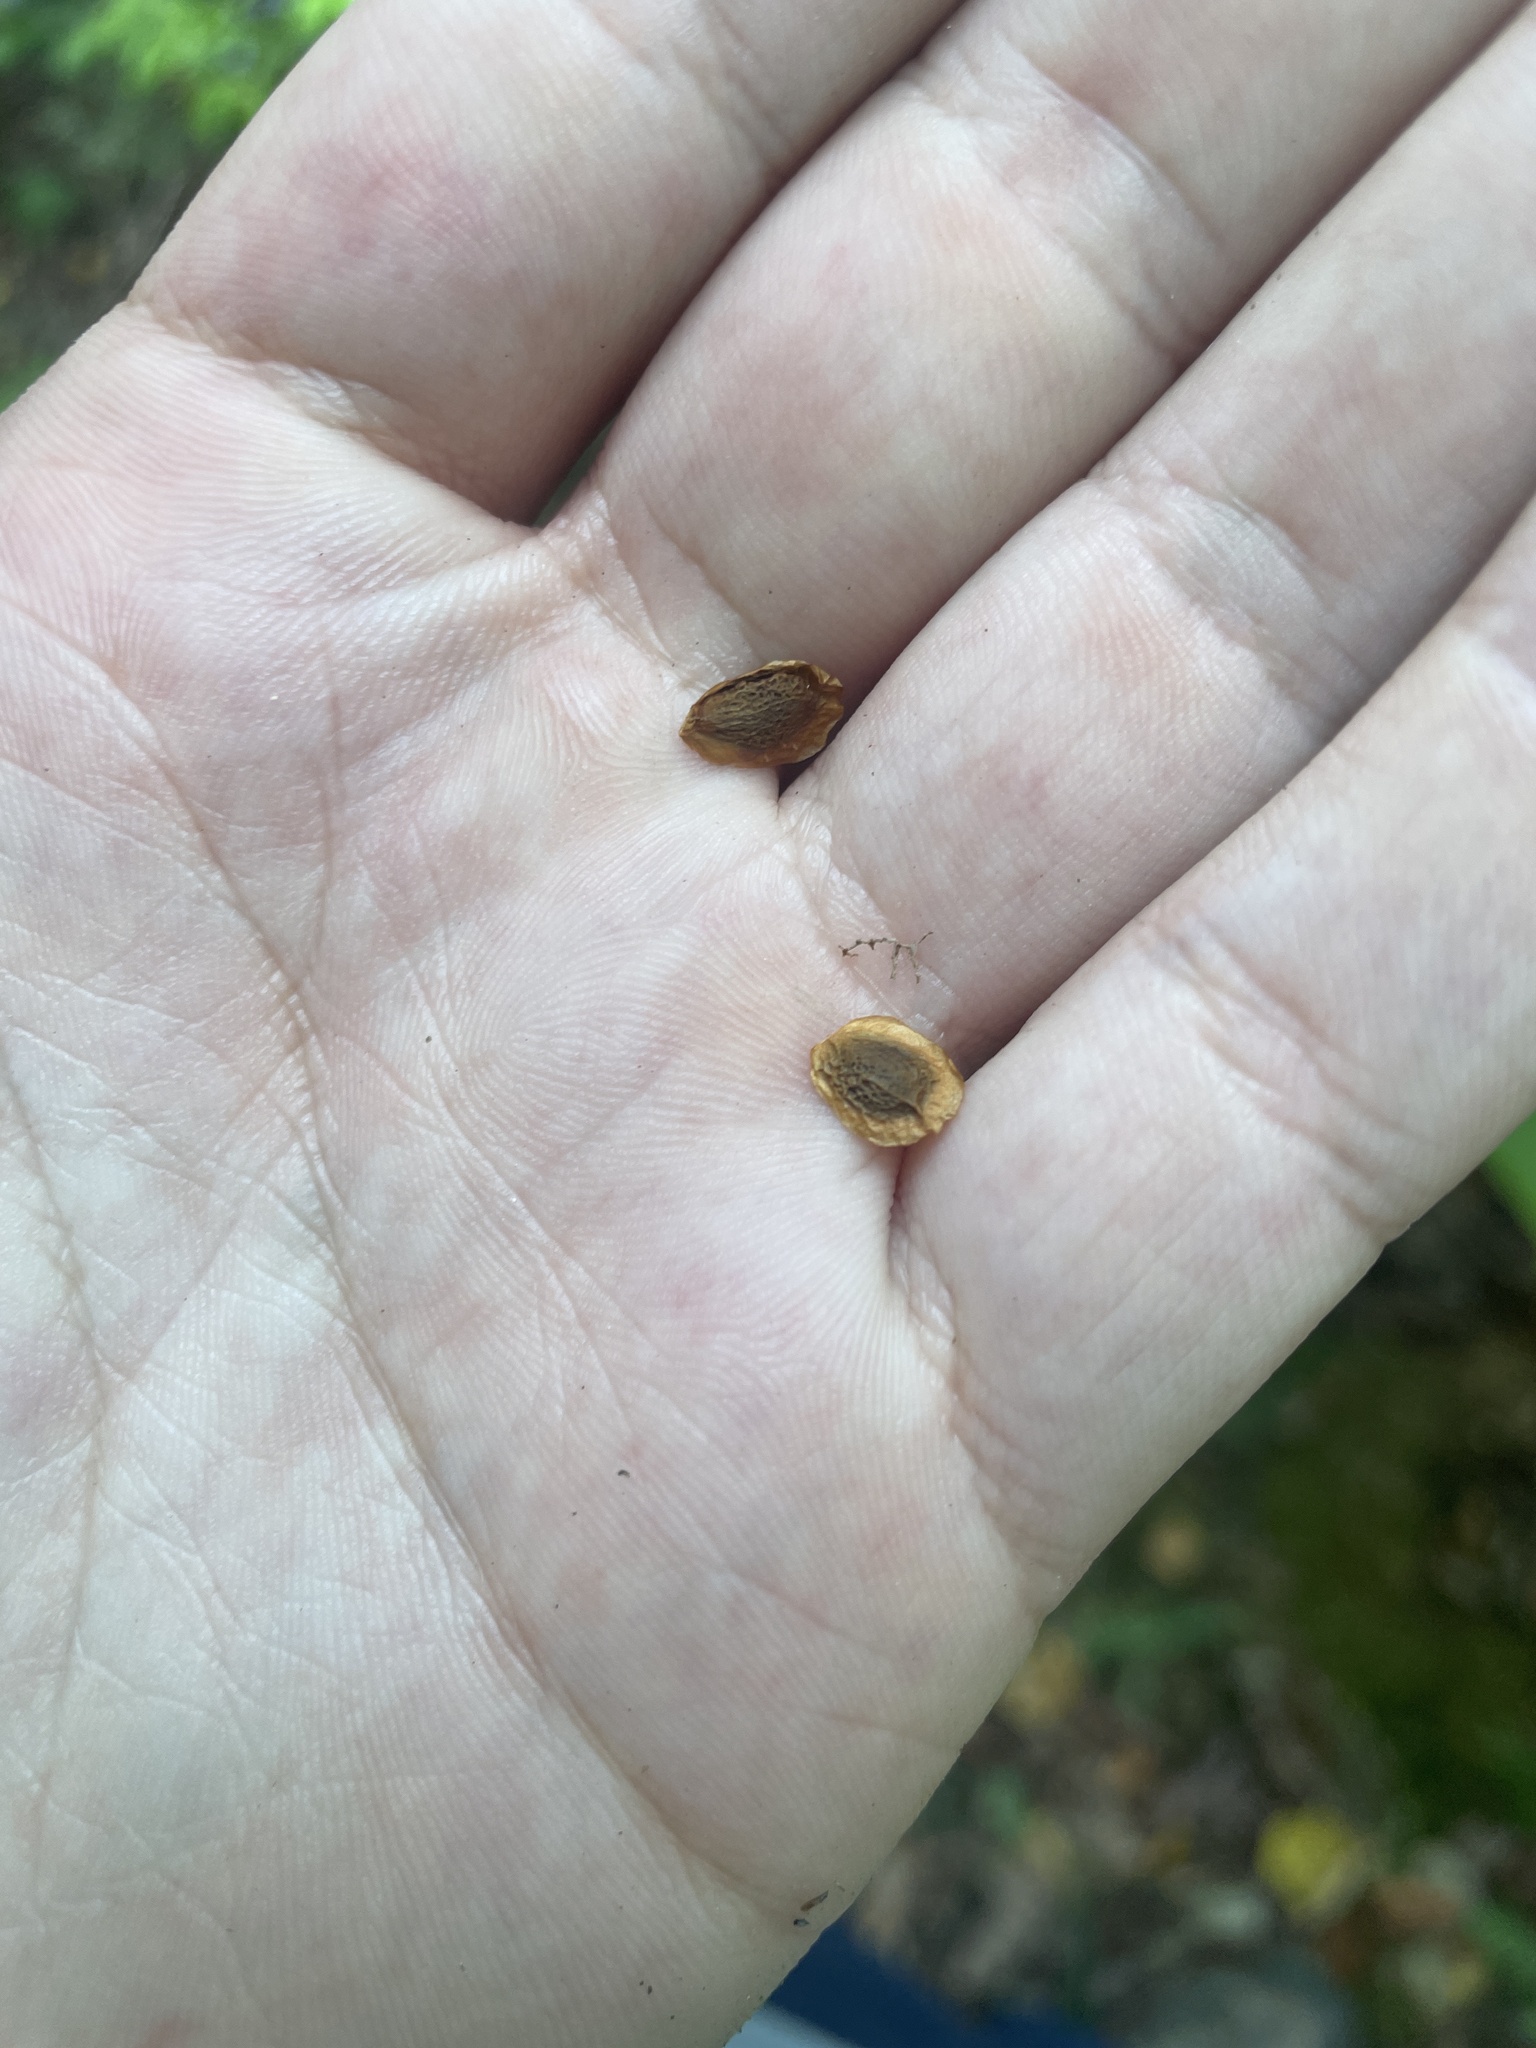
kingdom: Plantae
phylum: Tracheophyta
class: Magnoliopsida
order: Ericales
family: Theaceae
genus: Stewartia
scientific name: Stewartia ovata
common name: Mountain camellia
